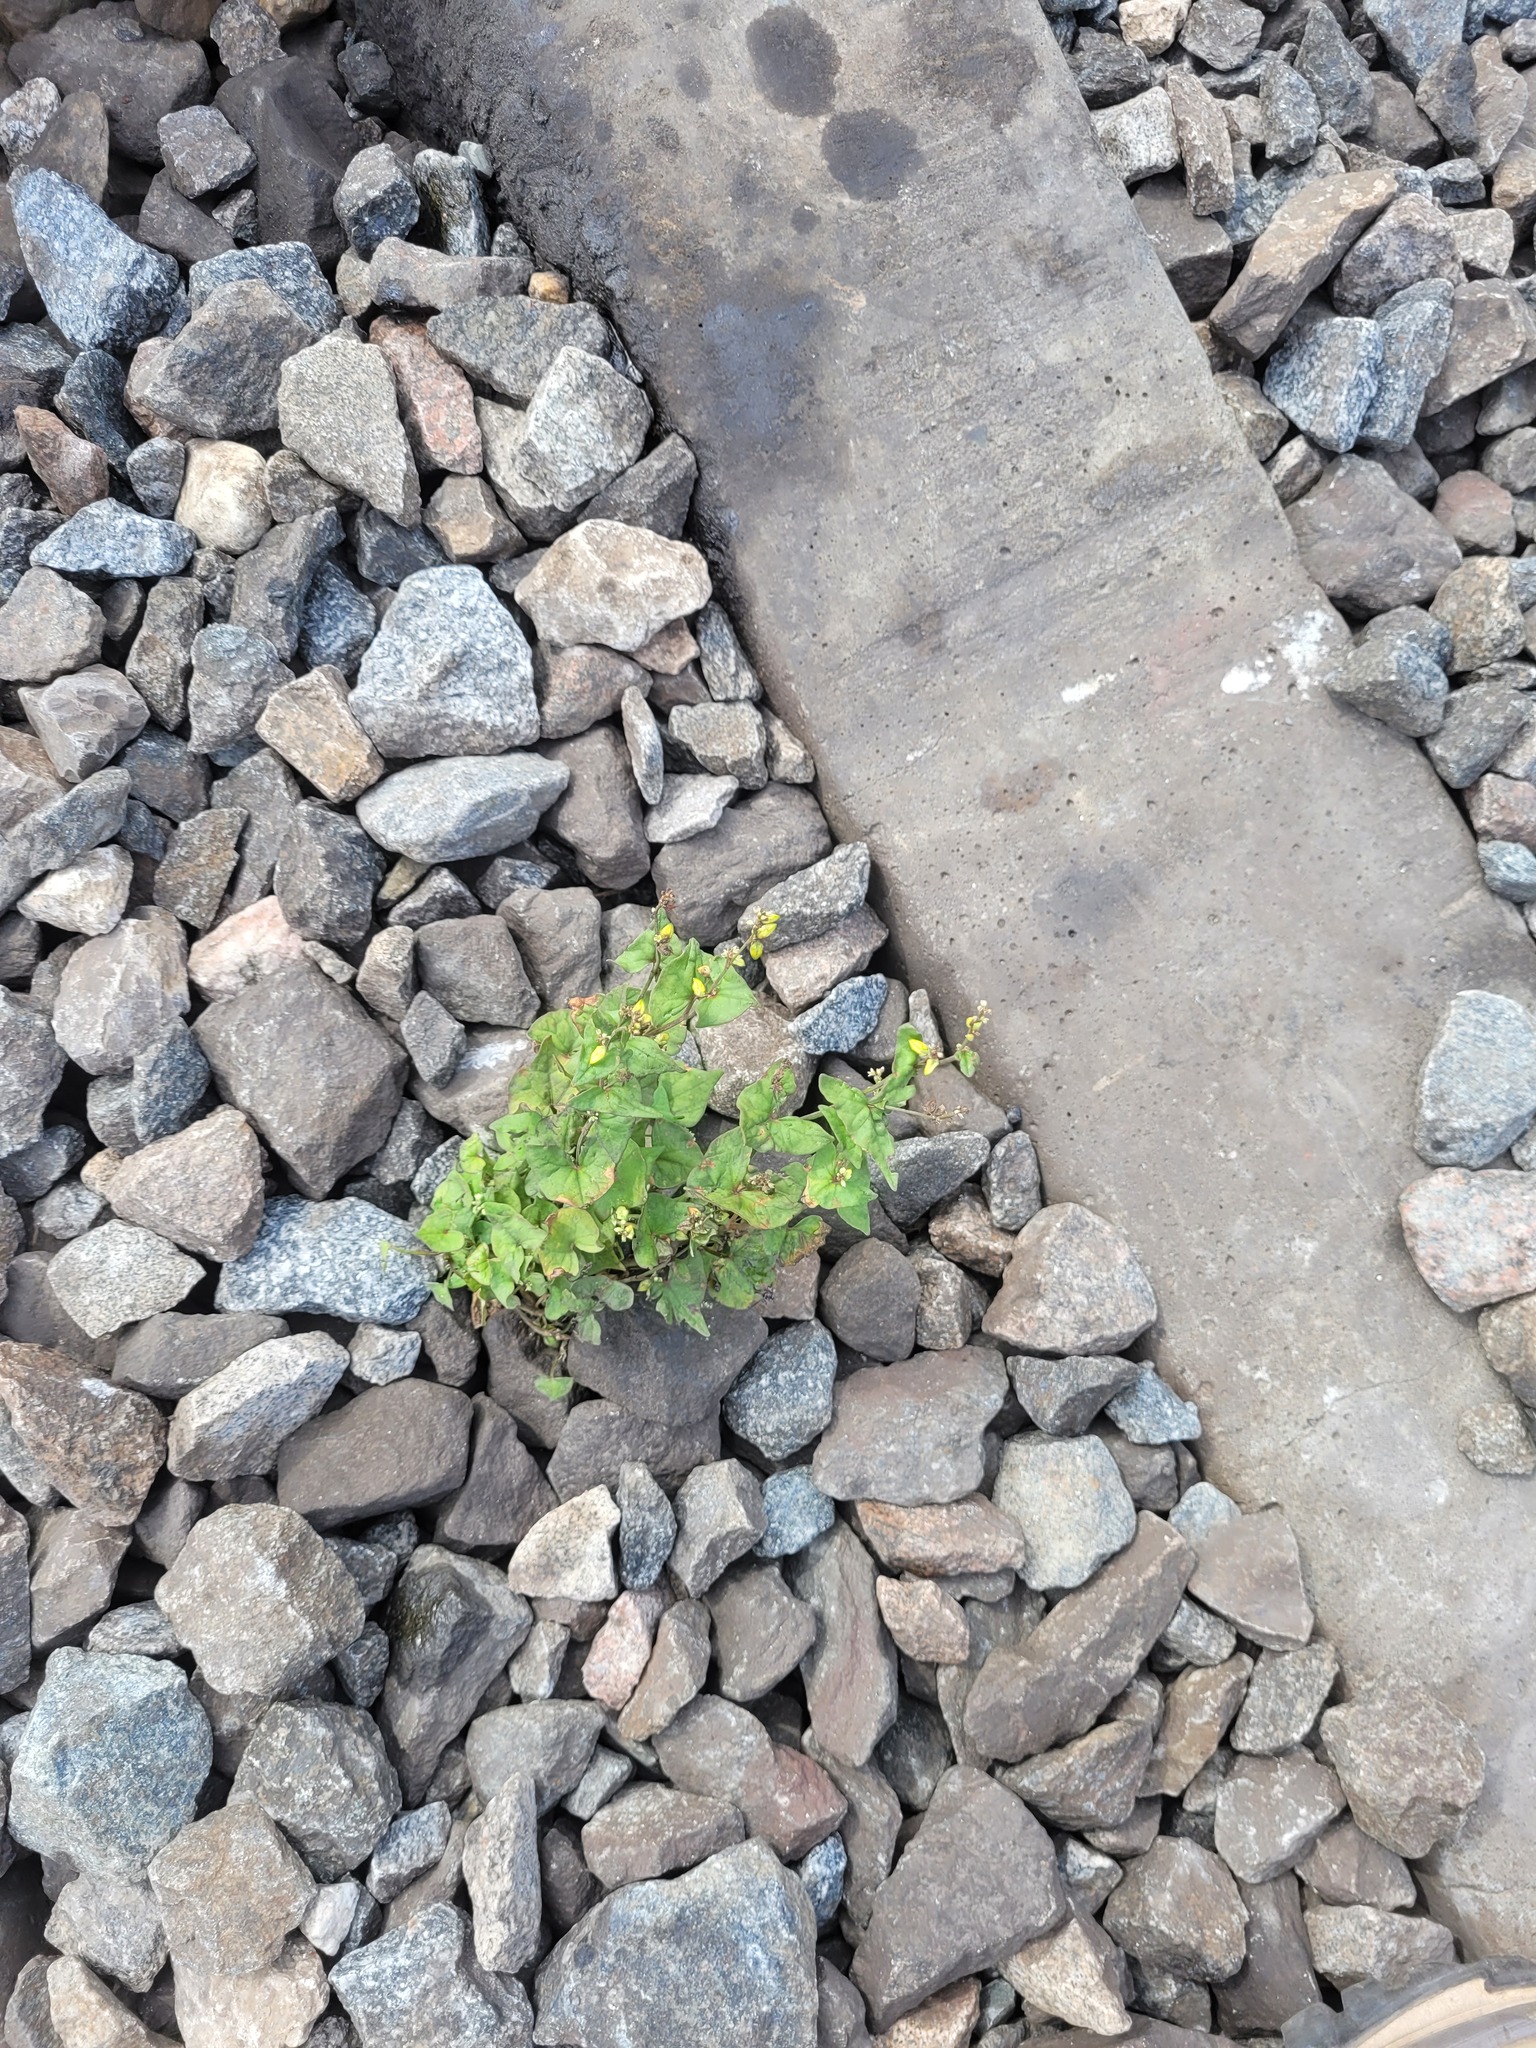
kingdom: Plantae
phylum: Tracheophyta
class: Magnoliopsida
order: Caryophyllales
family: Polygonaceae
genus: Fagopyrum
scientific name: Fagopyrum tataricum
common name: Green buckwheat
